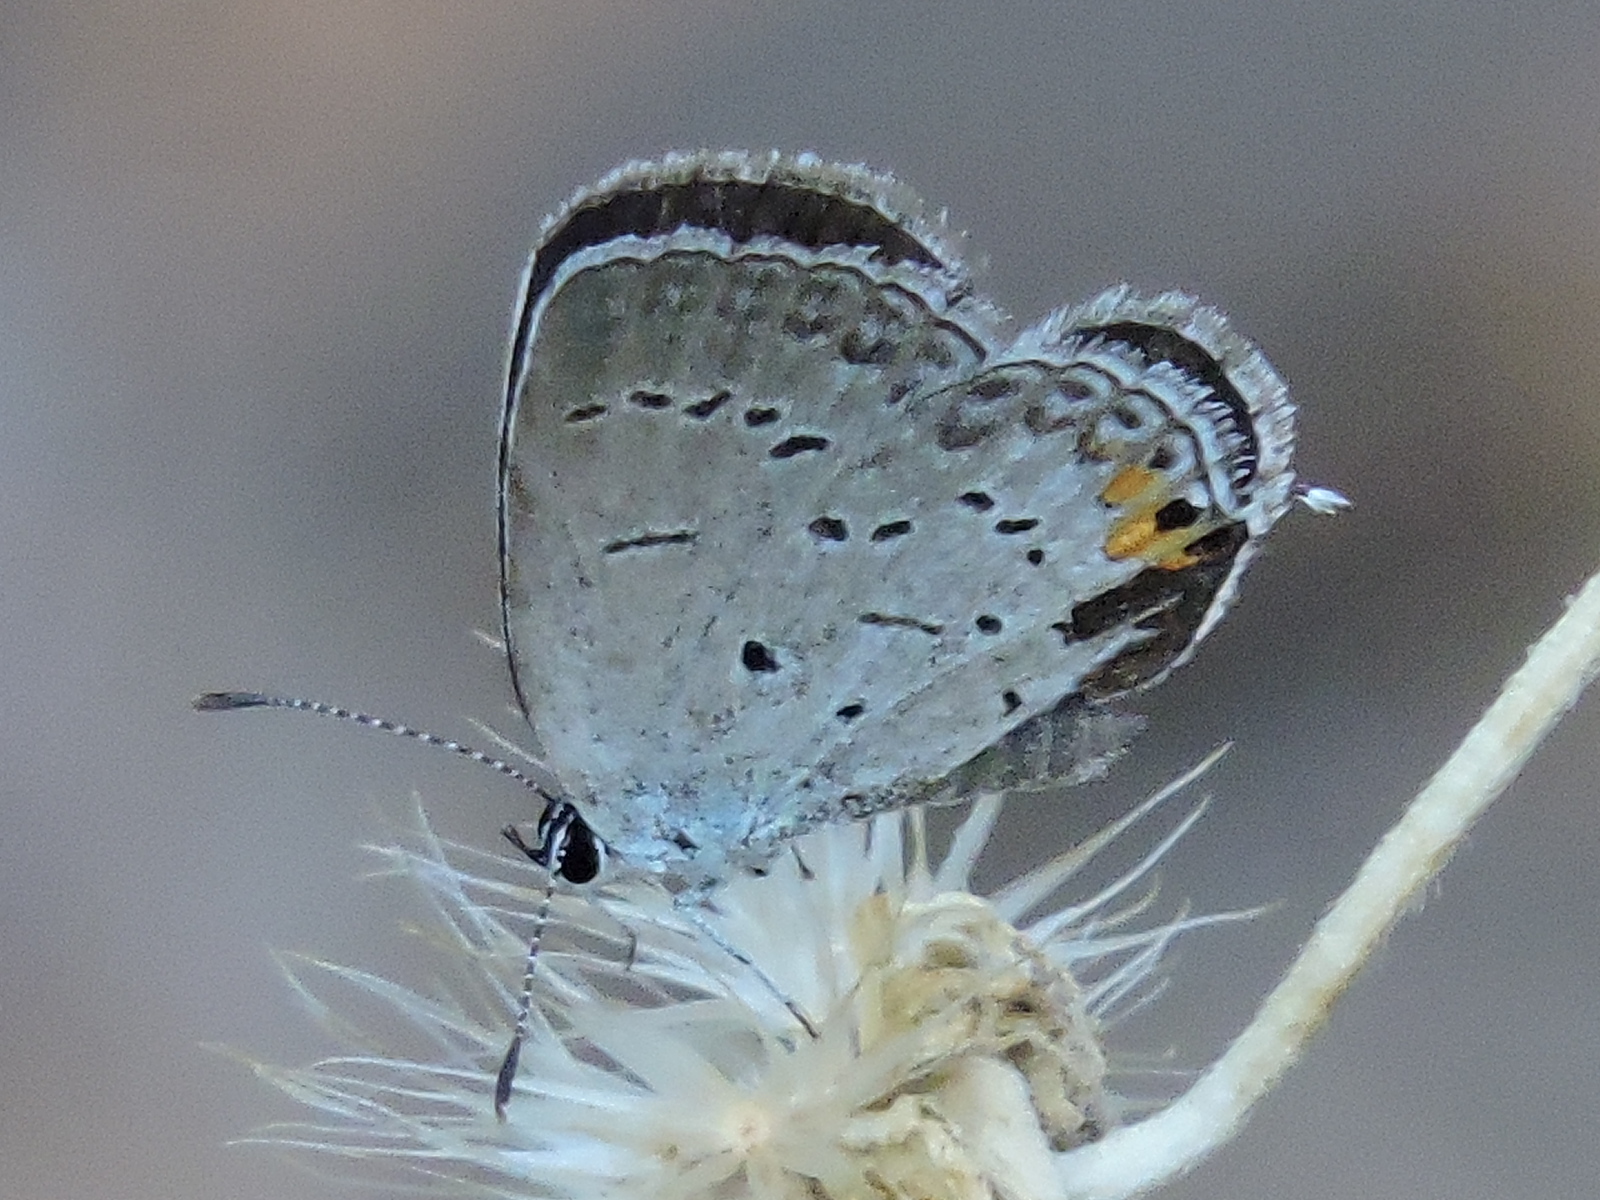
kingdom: Animalia
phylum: Arthropoda
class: Insecta
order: Lepidoptera
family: Lycaenidae
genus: Elkalyce
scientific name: Elkalyce comyntas
